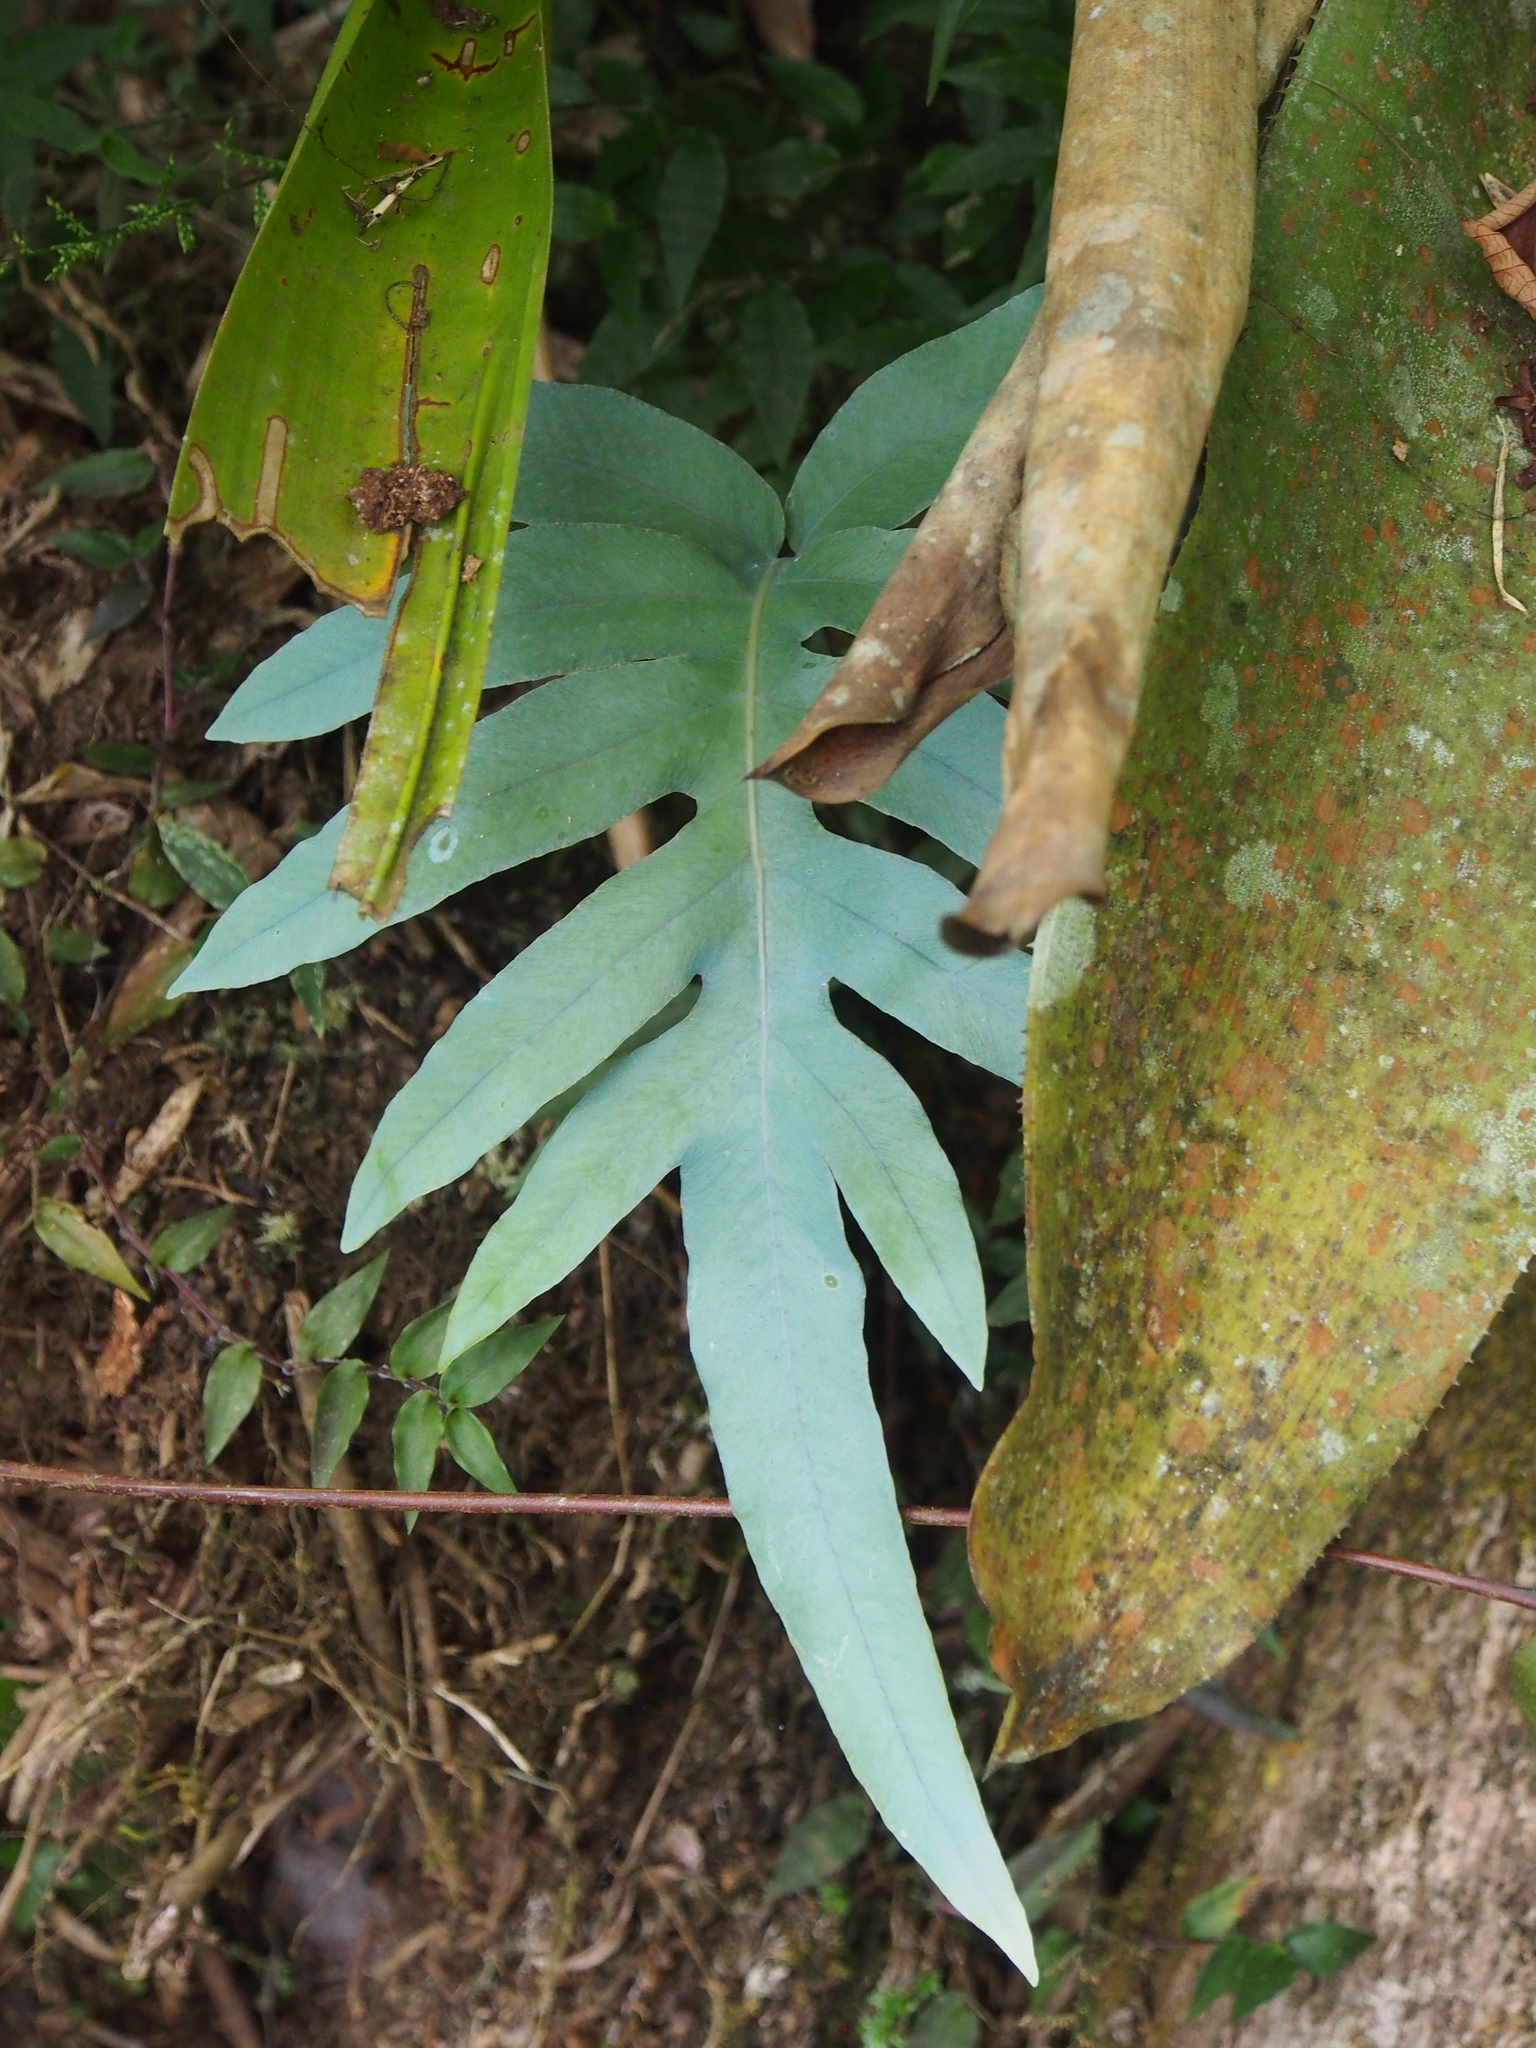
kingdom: Plantae
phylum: Tracheophyta
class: Polypodiopsida
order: Polypodiales
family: Polypodiaceae
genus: Phlebodium
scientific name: Phlebodium pseudoaureum
